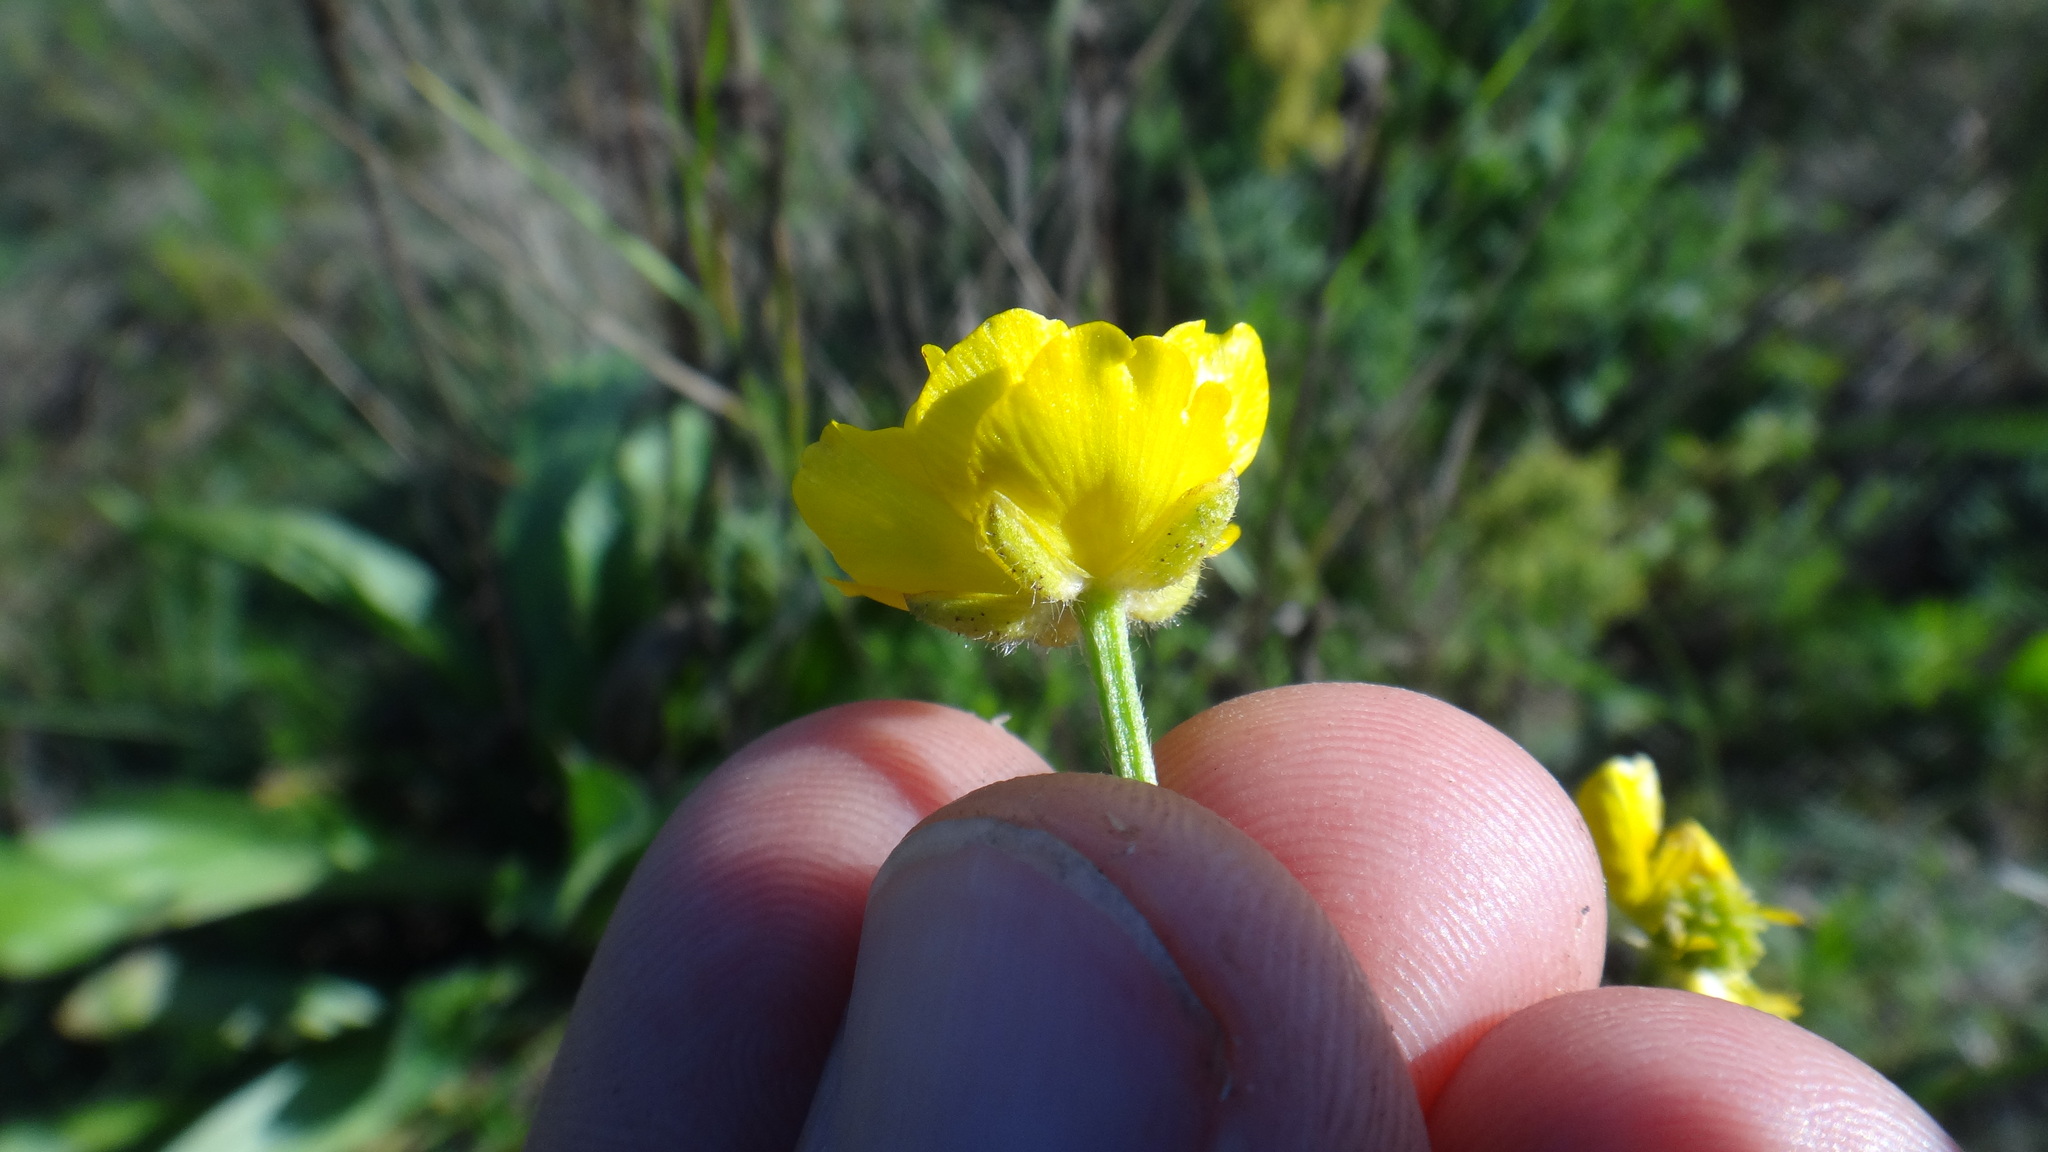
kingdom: Plantae
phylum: Tracheophyta
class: Magnoliopsida
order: Ranunculales
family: Ranunculaceae
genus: Ranunculus
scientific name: Ranunculus polyanthemos
